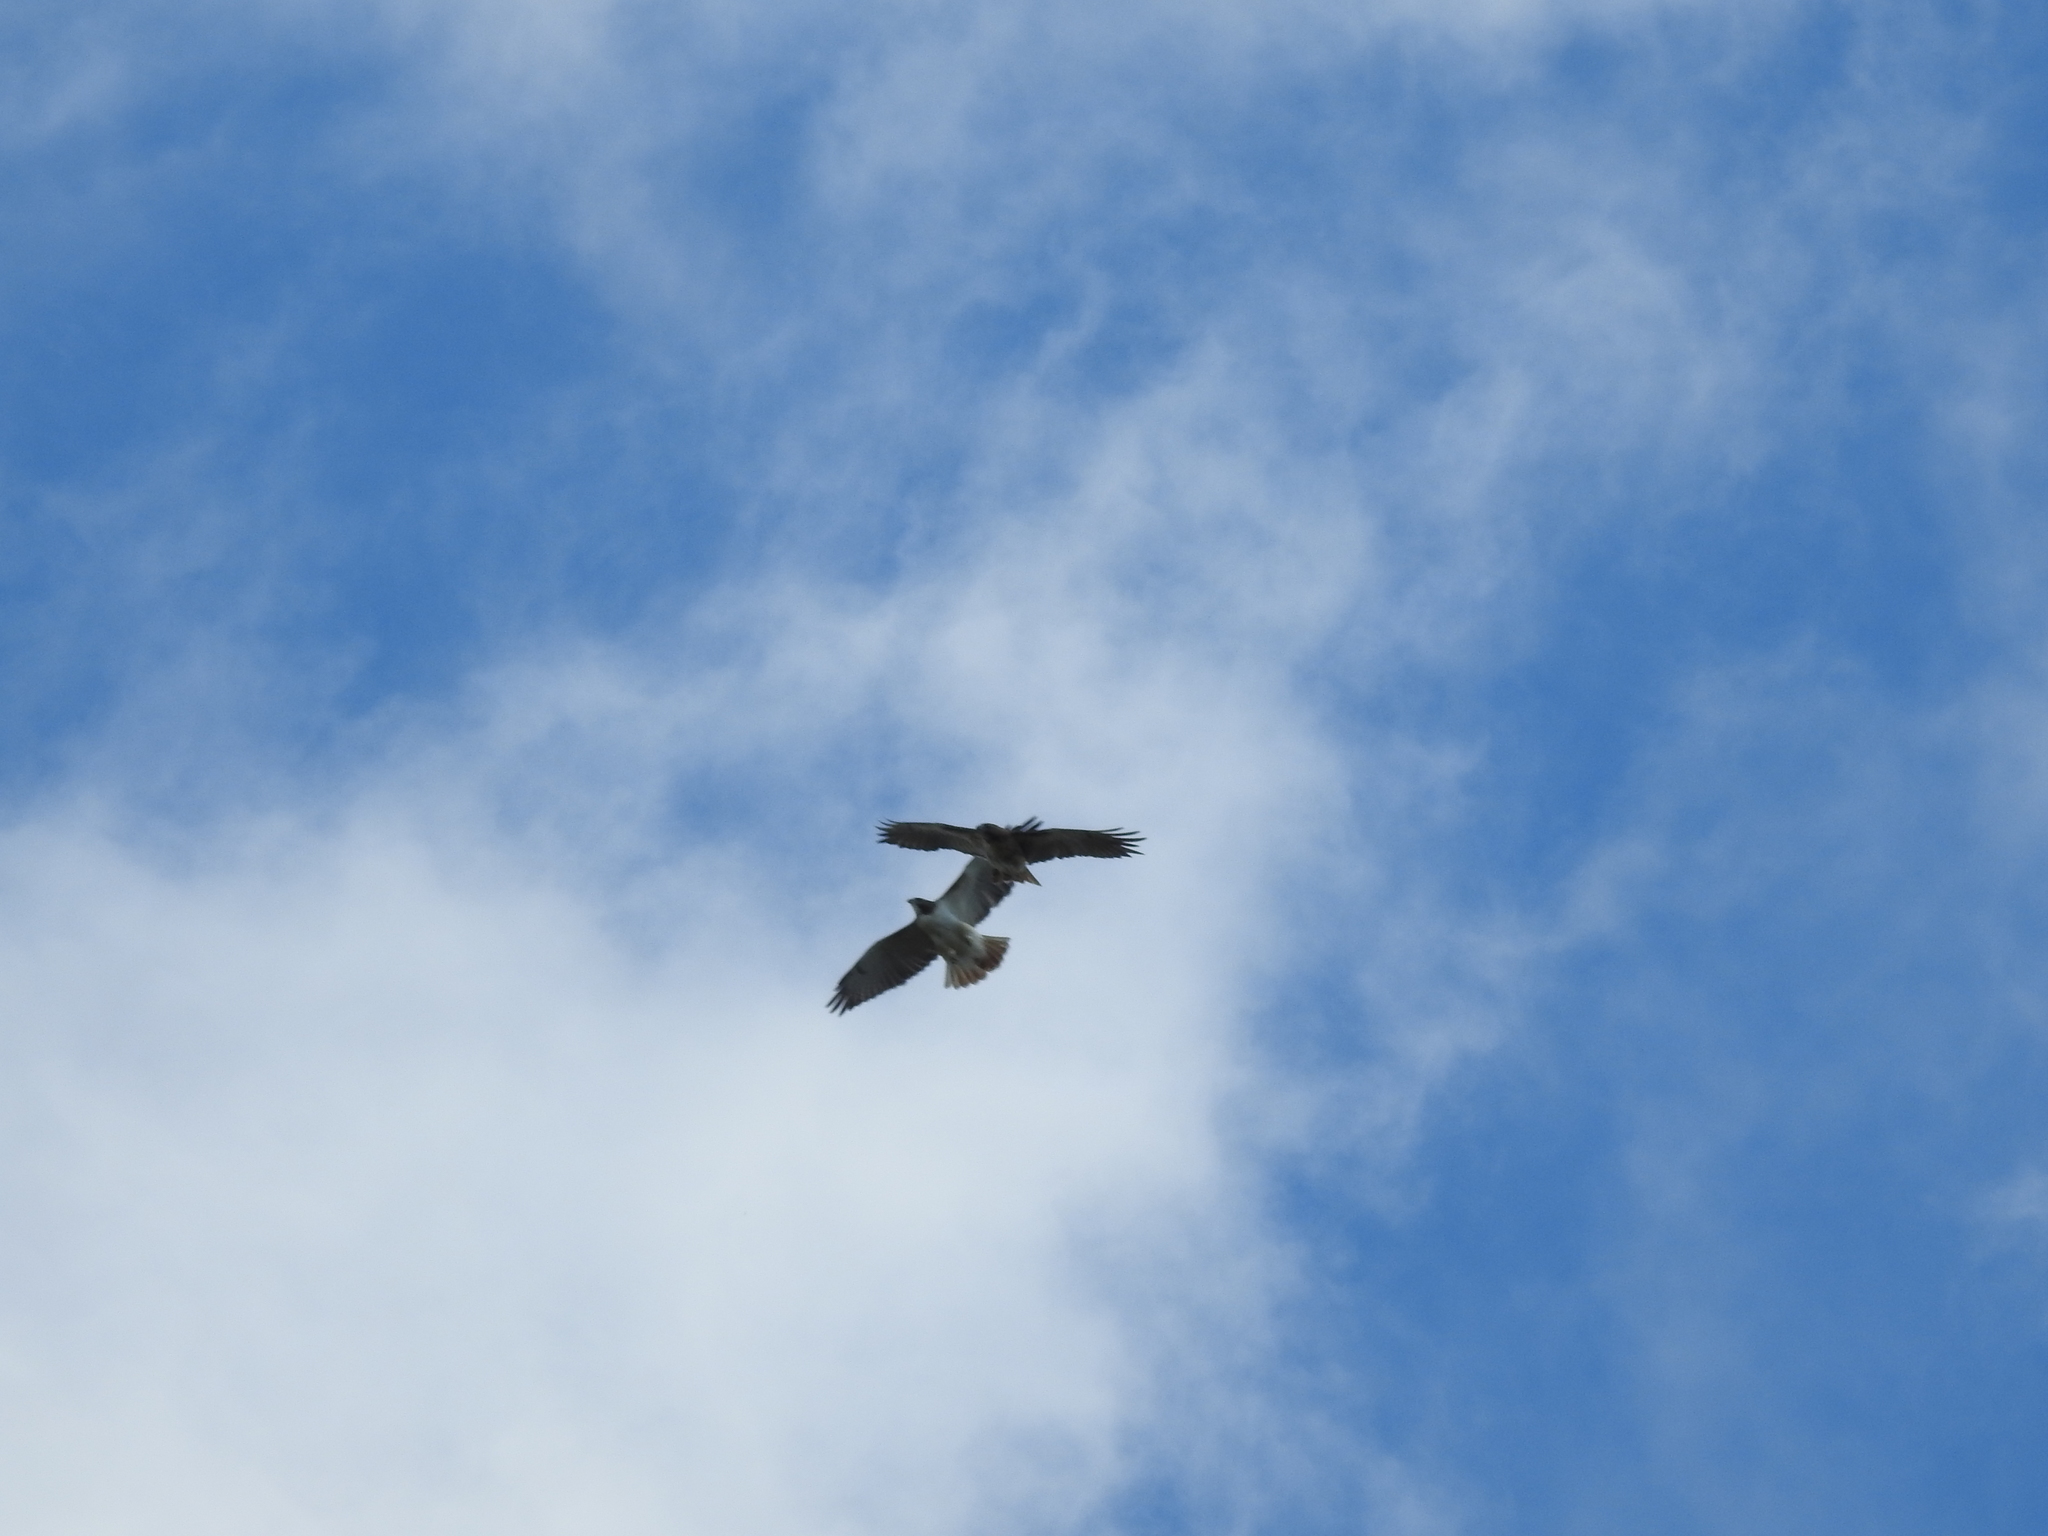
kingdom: Animalia
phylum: Chordata
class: Aves
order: Accipitriformes
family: Accipitridae
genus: Buteo
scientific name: Buteo jamaicensis
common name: Red-tailed hawk
